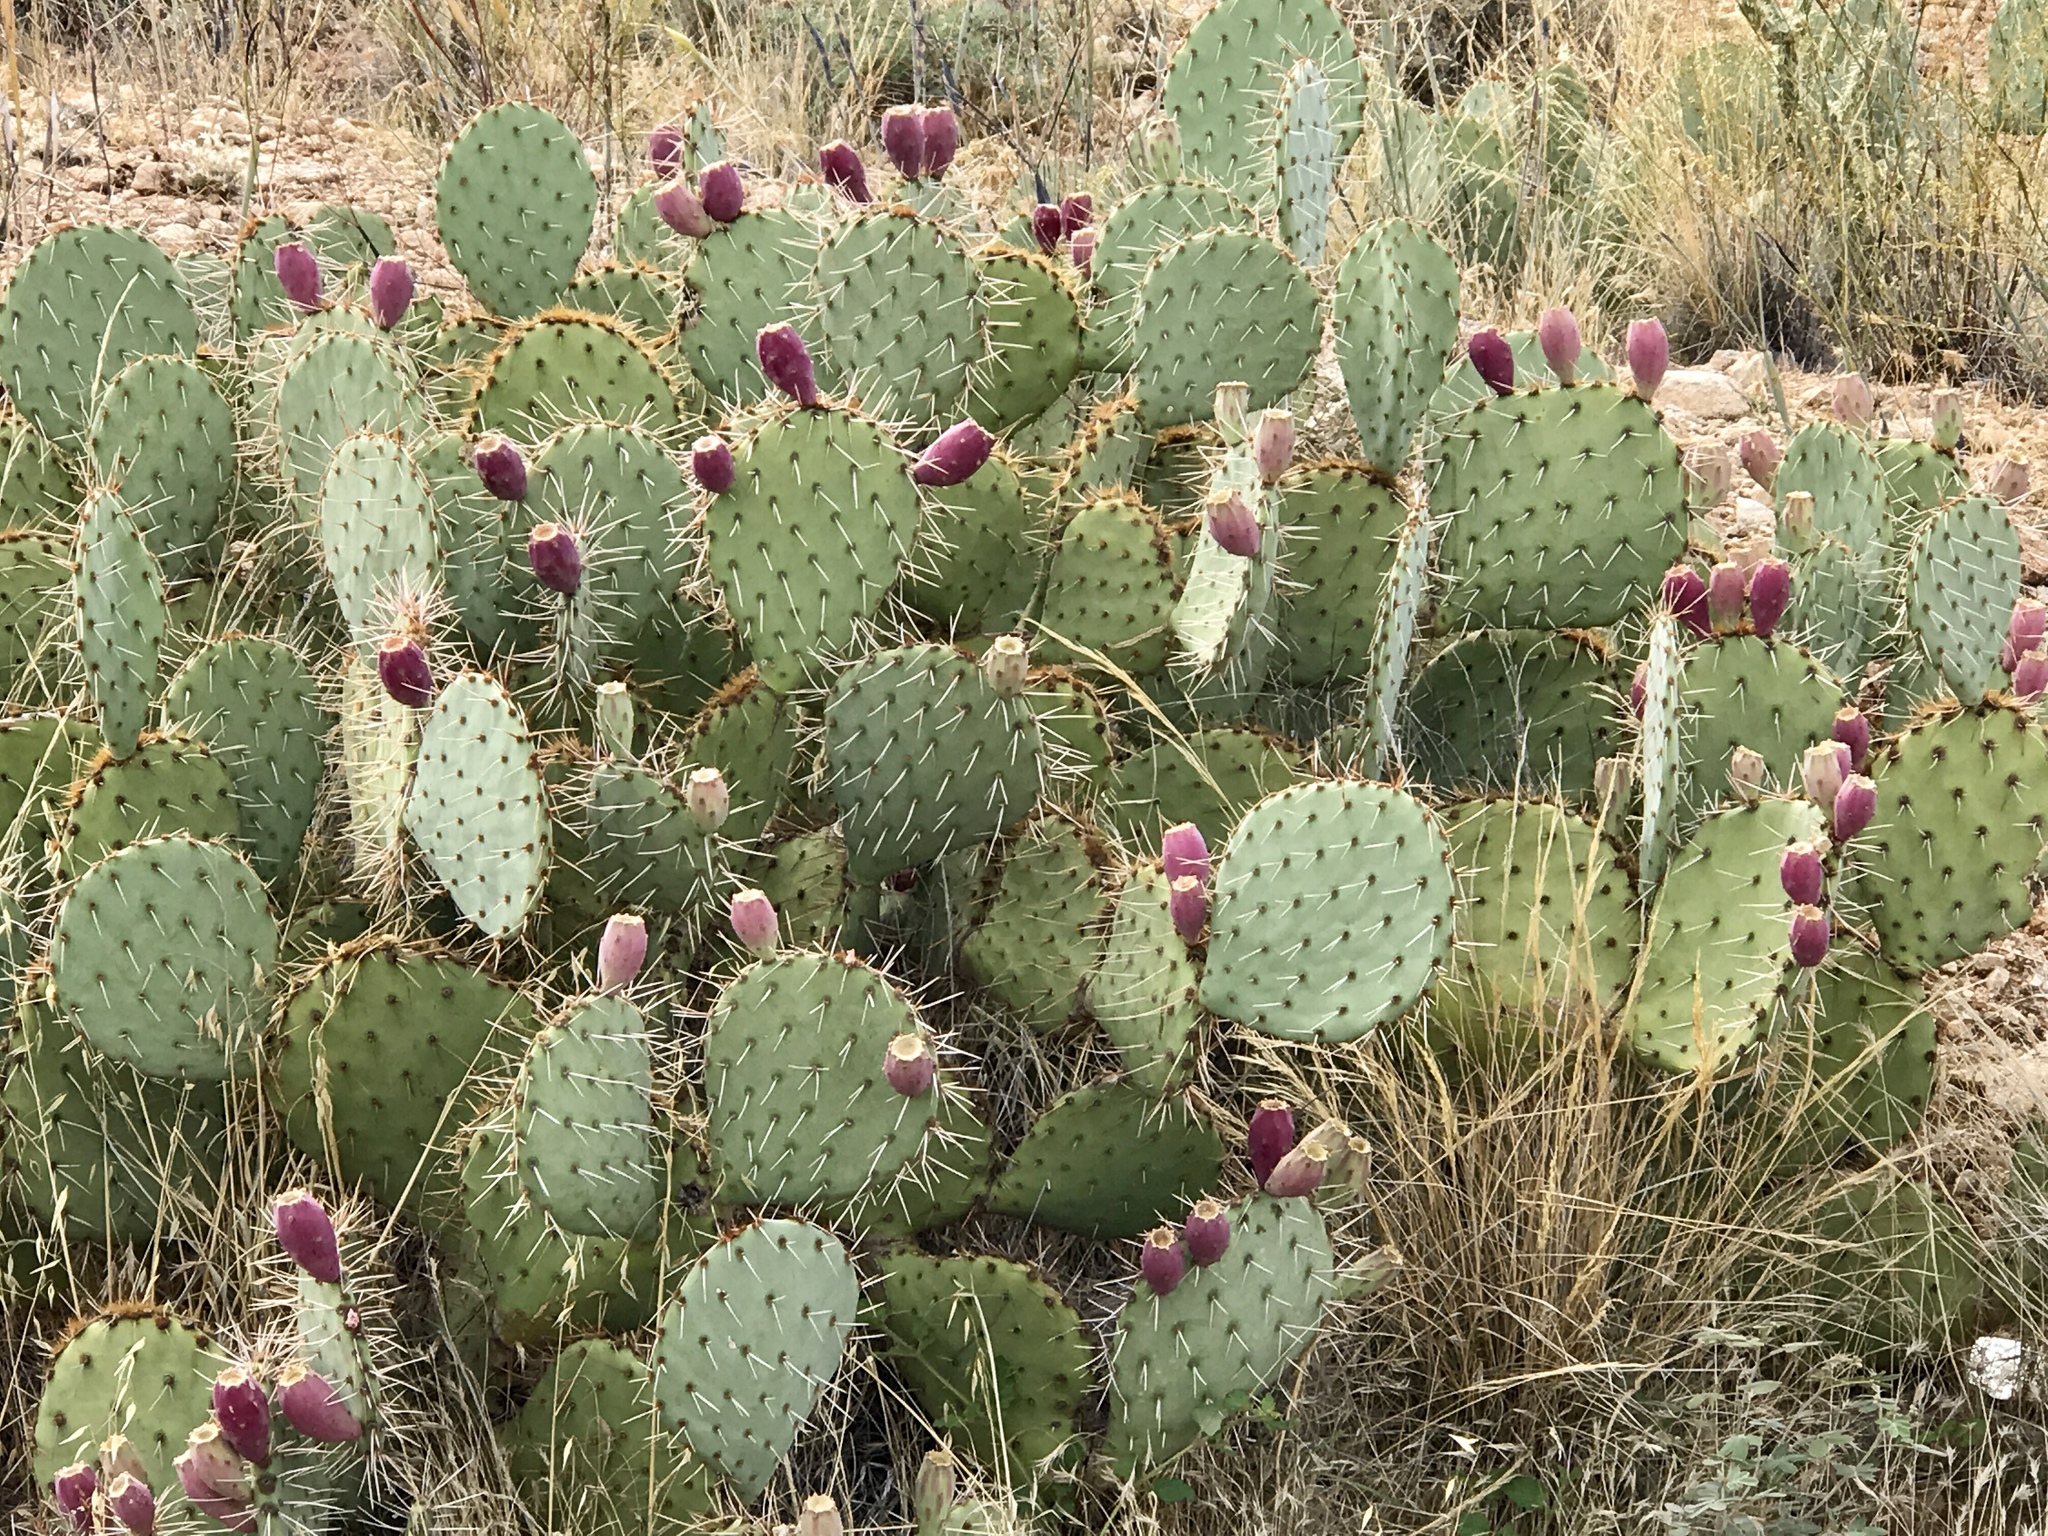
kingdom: Plantae
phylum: Tracheophyta
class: Magnoliopsida
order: Caryophyllales
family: Cactaceae
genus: Opuntia
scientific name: Opuntia engelmannii
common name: Cactus-apple
